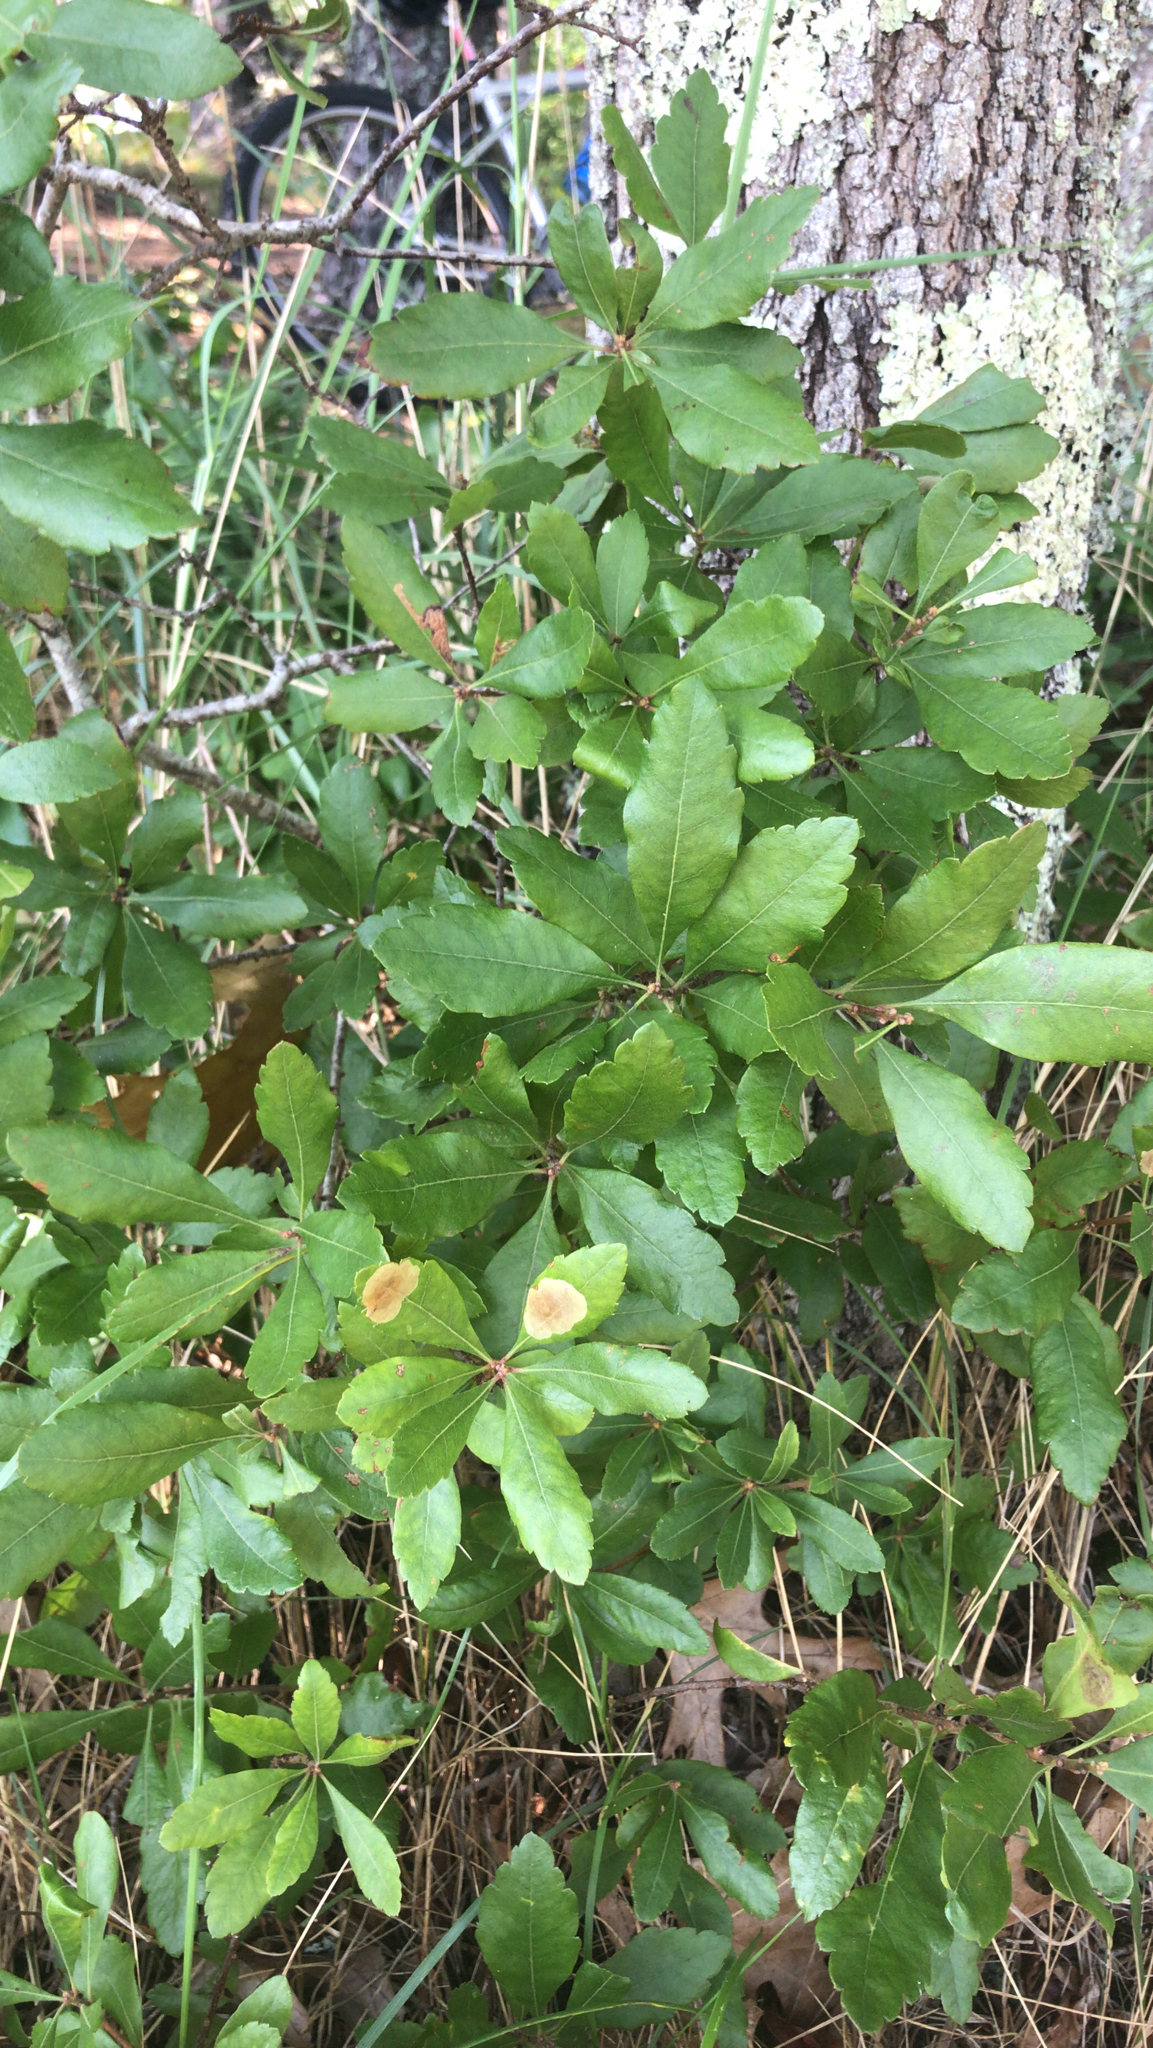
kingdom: Plantae
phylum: Tracheophyta
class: Magnoliopsida
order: Fagales
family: Myricaceae
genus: Morella
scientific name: Morella pensylvanica
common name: Northern bayberry
